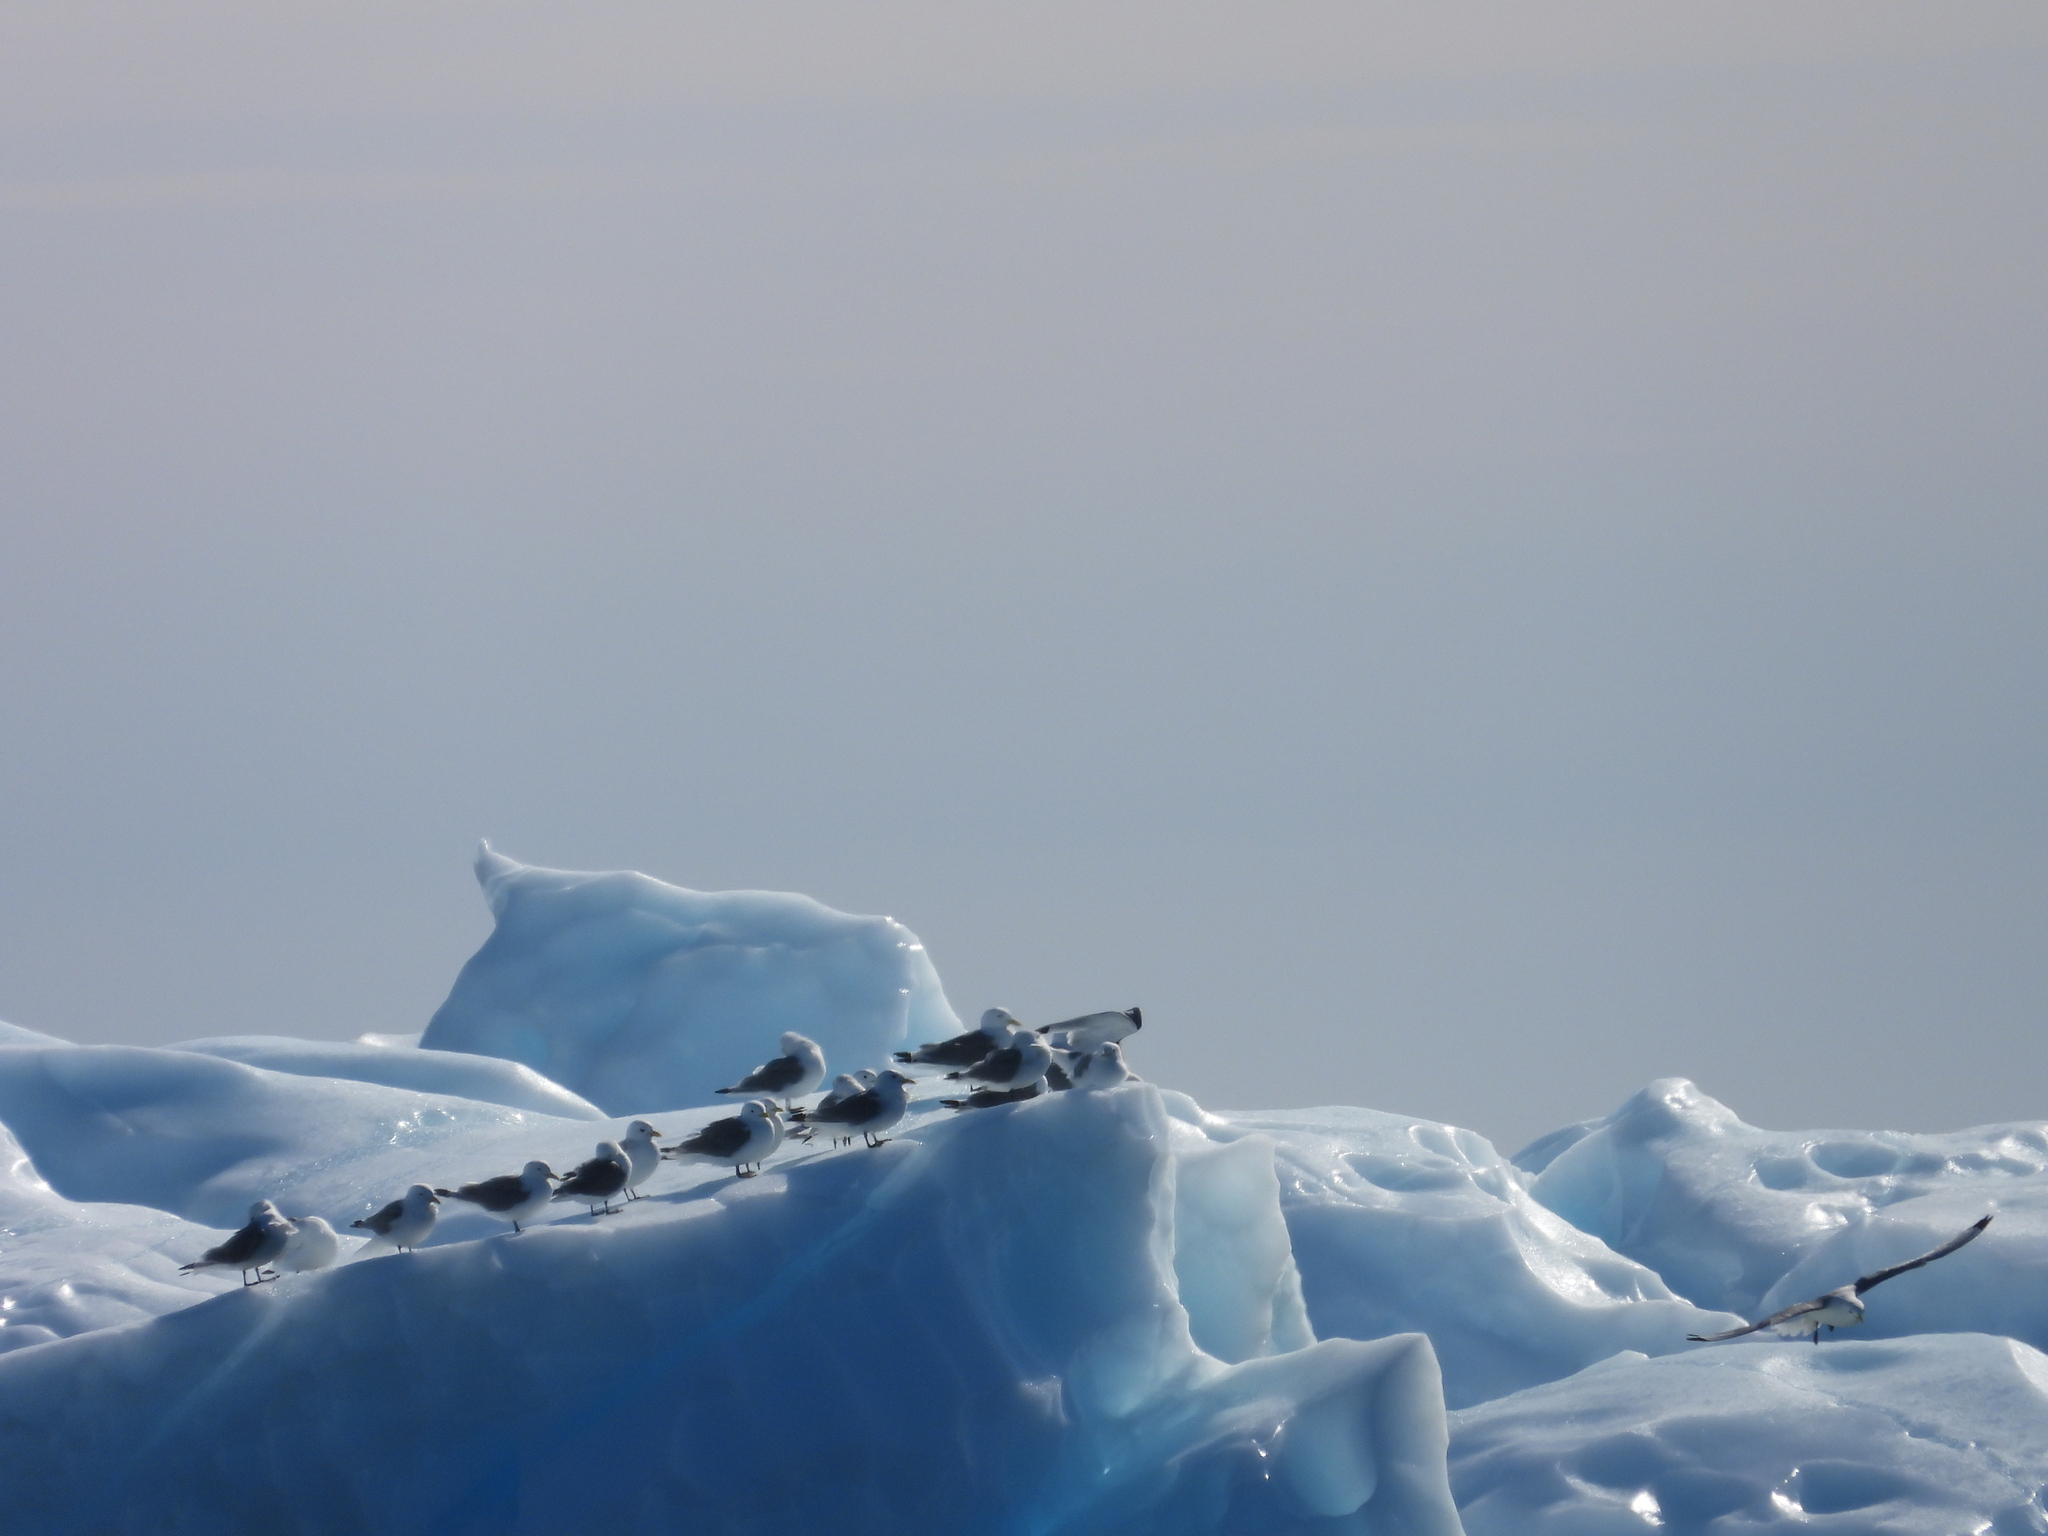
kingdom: Animalia
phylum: Chordata
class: Aves
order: Charadriiformes
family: Laridae
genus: Rissa
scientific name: Rissa tridactyla
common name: Black-legged kittiwake
